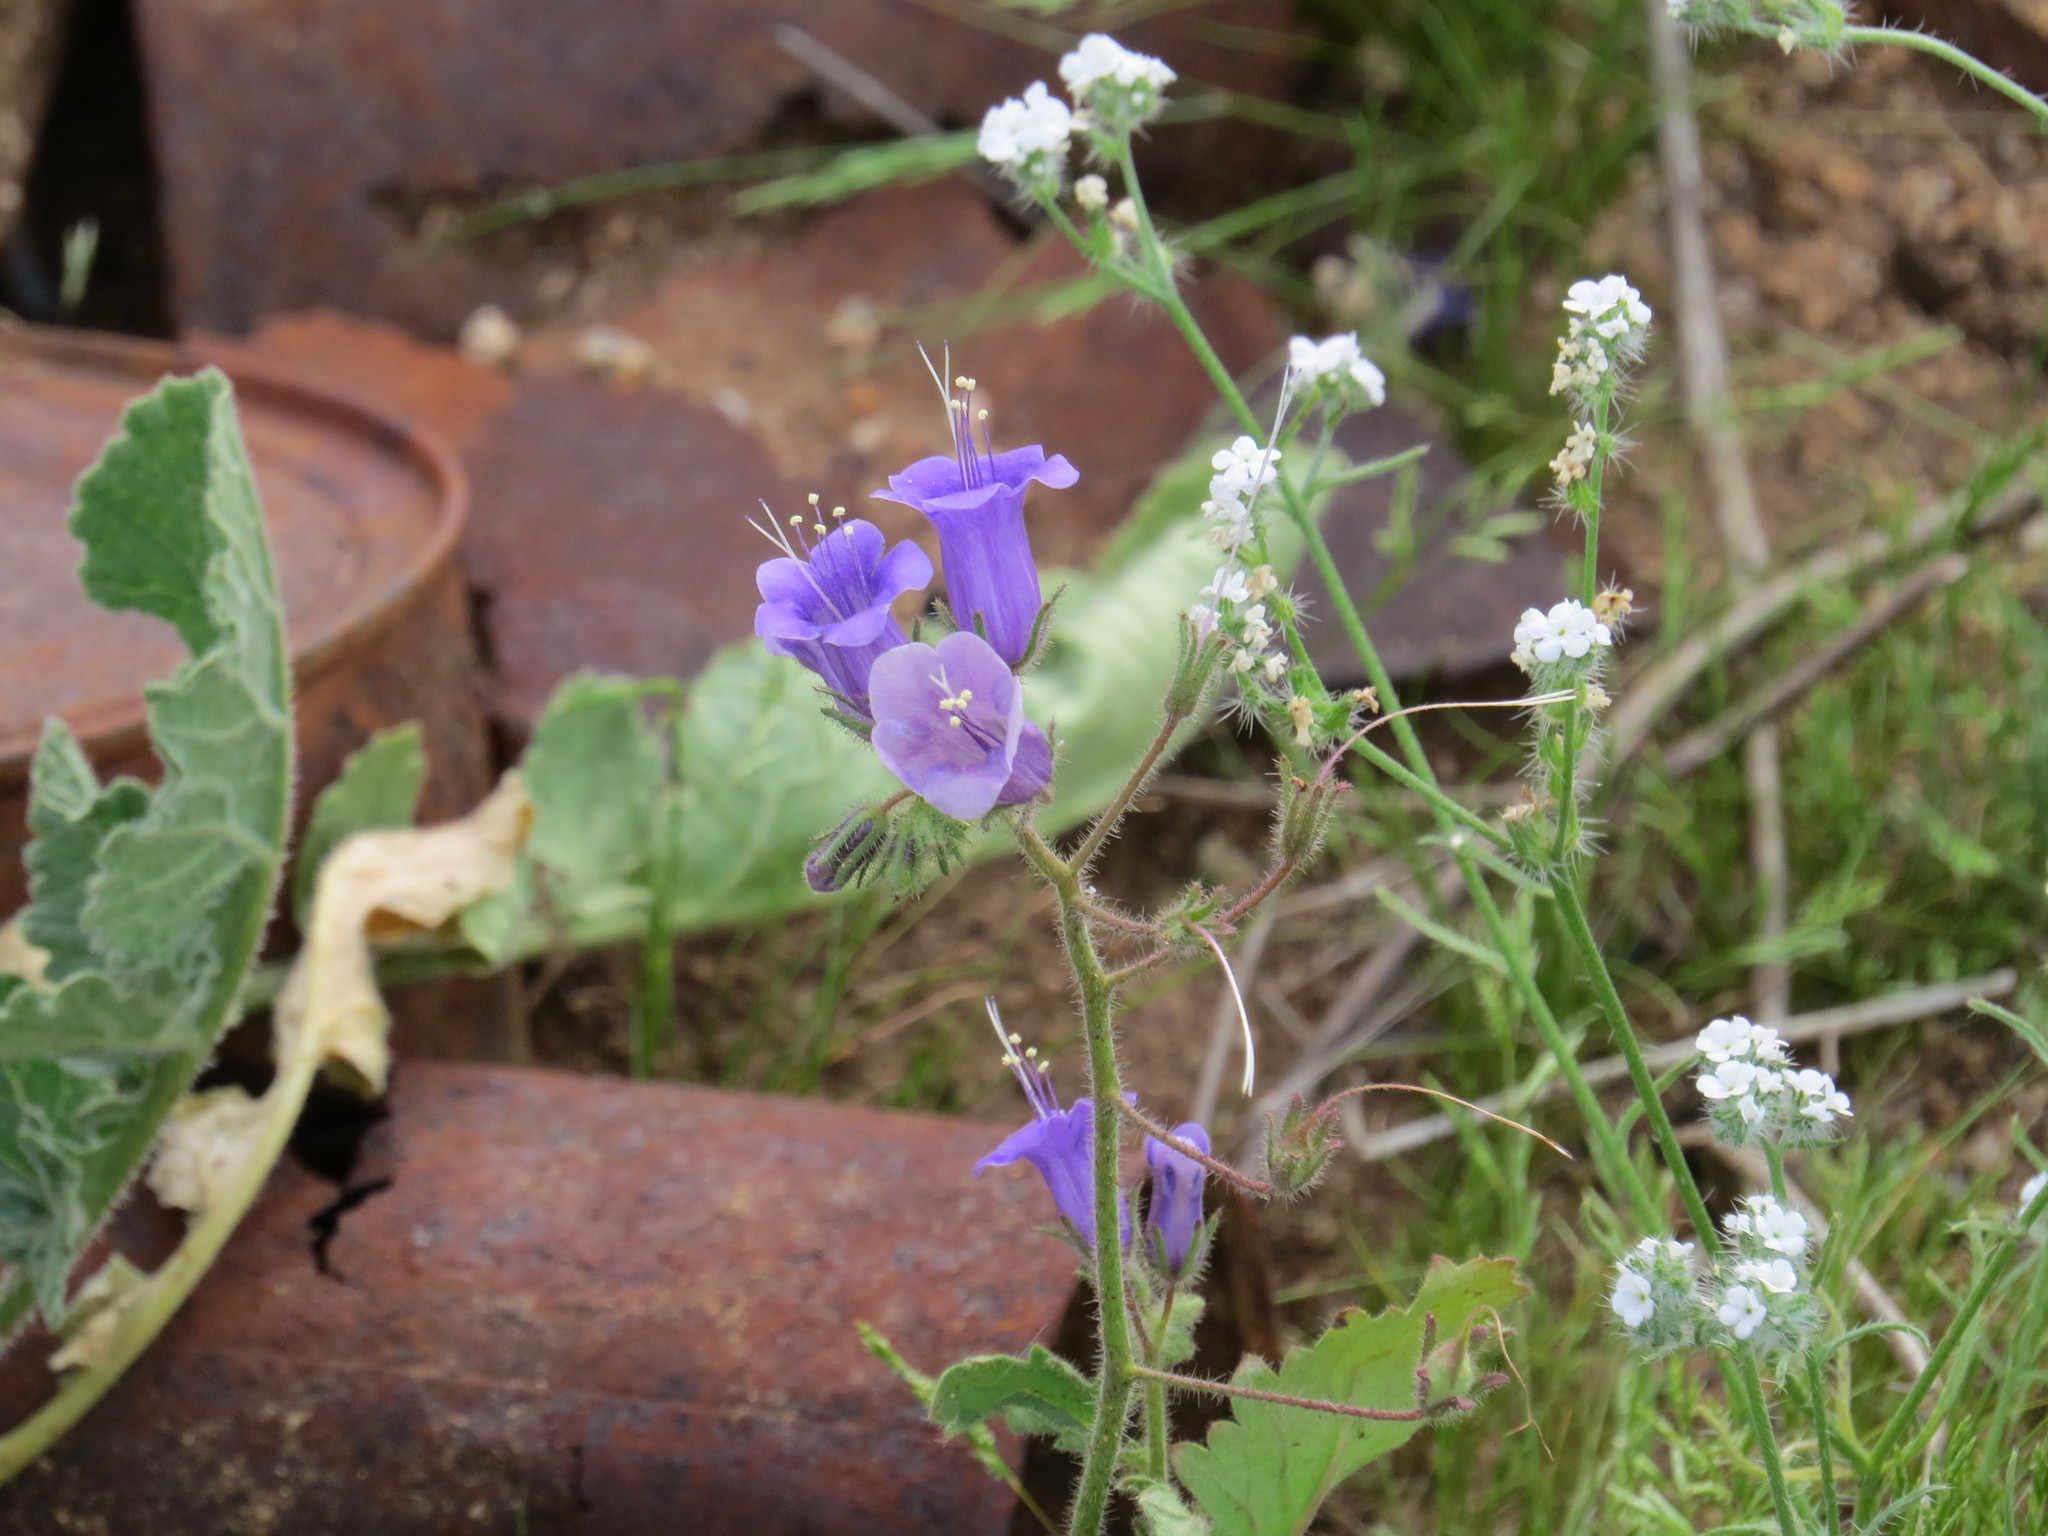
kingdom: Plantae
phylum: Tracheophyta
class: Magnoliopsida
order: Boraginales
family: Hydrophyllaceae
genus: Phacelia
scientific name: Phacelia minor
